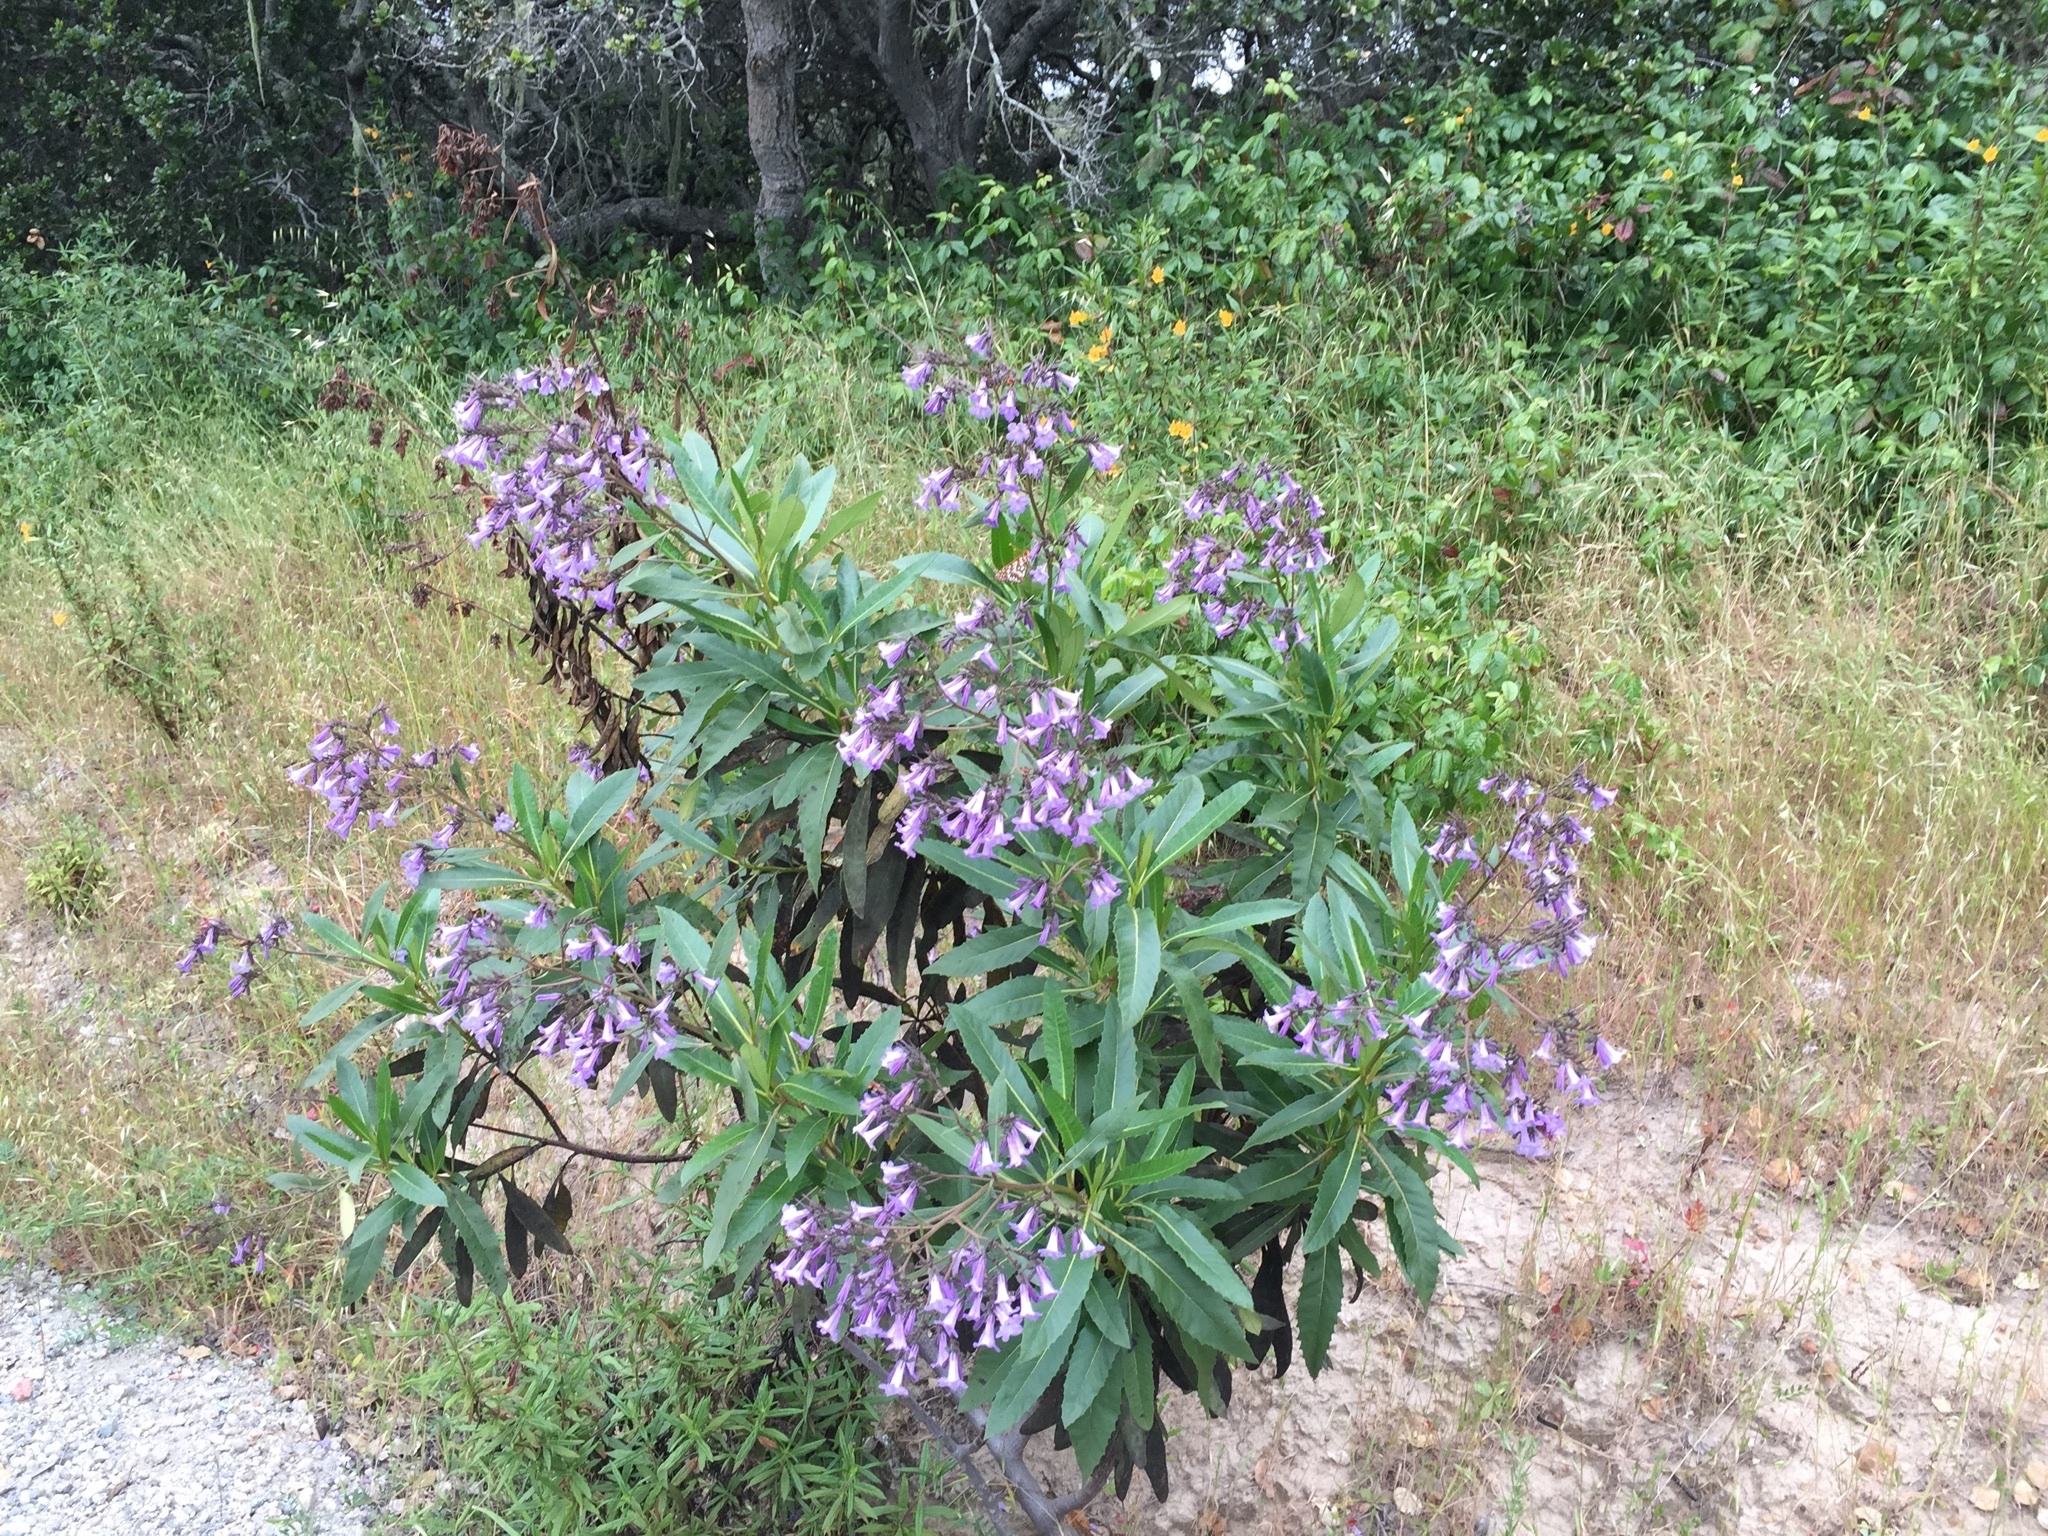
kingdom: Plantae
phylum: Tracheophyta
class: Magnoliopsida
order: Boraginales
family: Namaceae
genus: Eriodictyon
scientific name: Eriodictyon californicum
